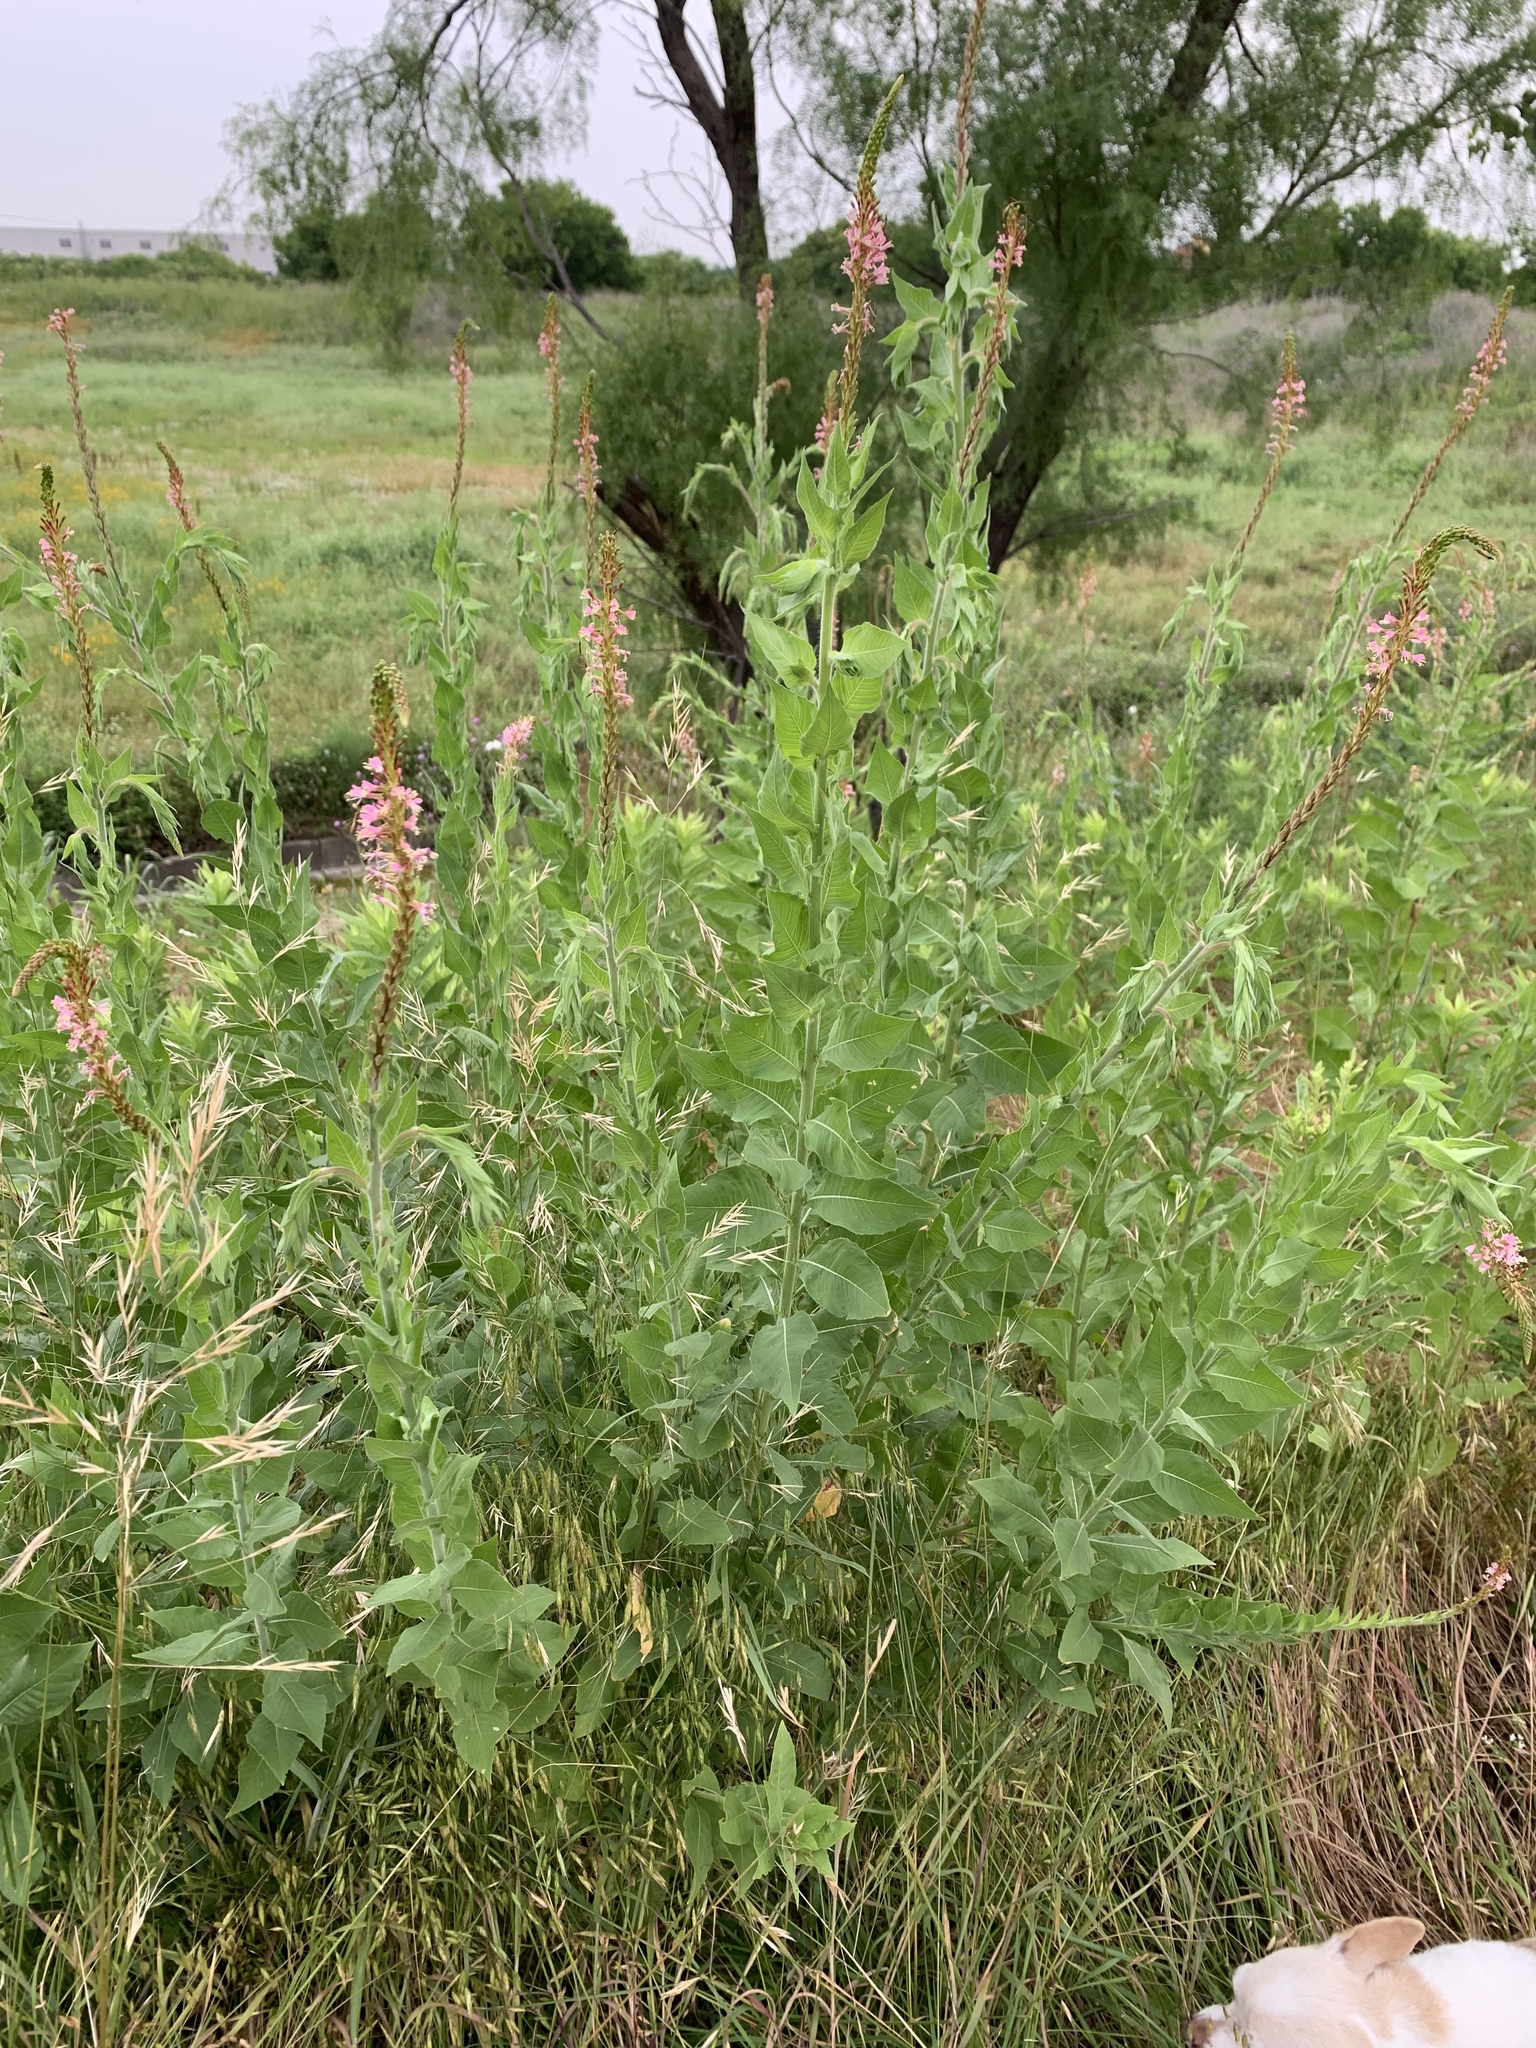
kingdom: Plantae
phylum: Tracheophyta
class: Magnoliopsida
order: Myrtales
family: Onagraceae
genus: Oenothera
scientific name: Oenothera curtiflora
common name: Velvetweed
